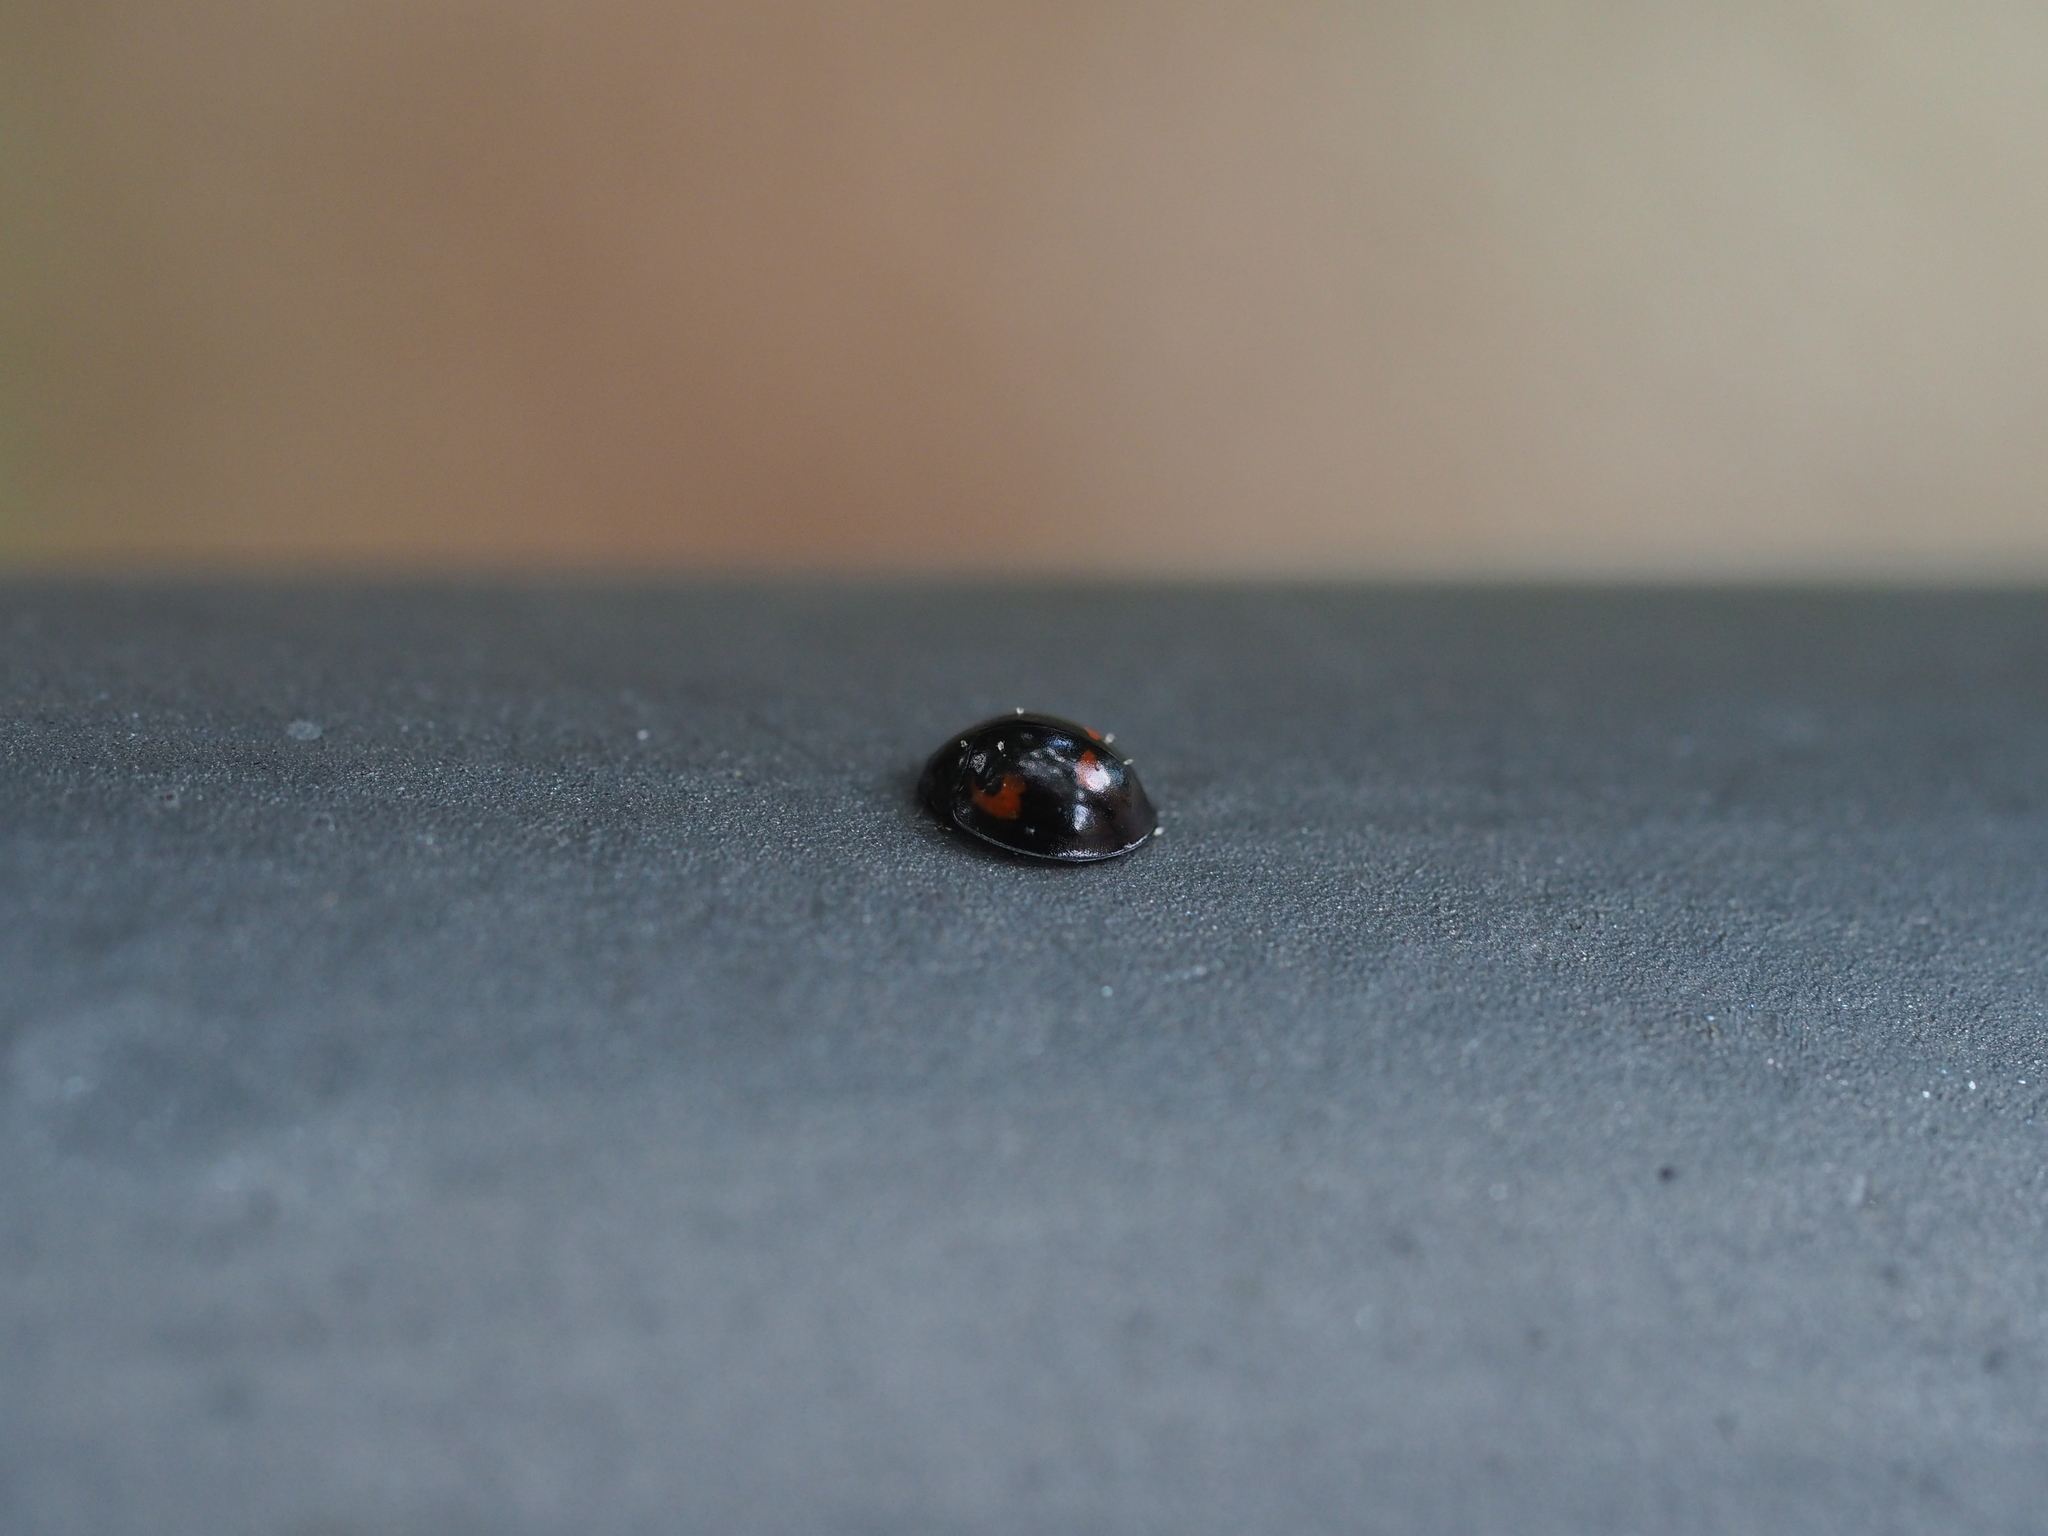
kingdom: Animalia
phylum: Arthropoda
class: Insecta
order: Coleoptera
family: Coccinellidae
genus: Brumus
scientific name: Brumus quadripustulatus
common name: Ladybird beetle
